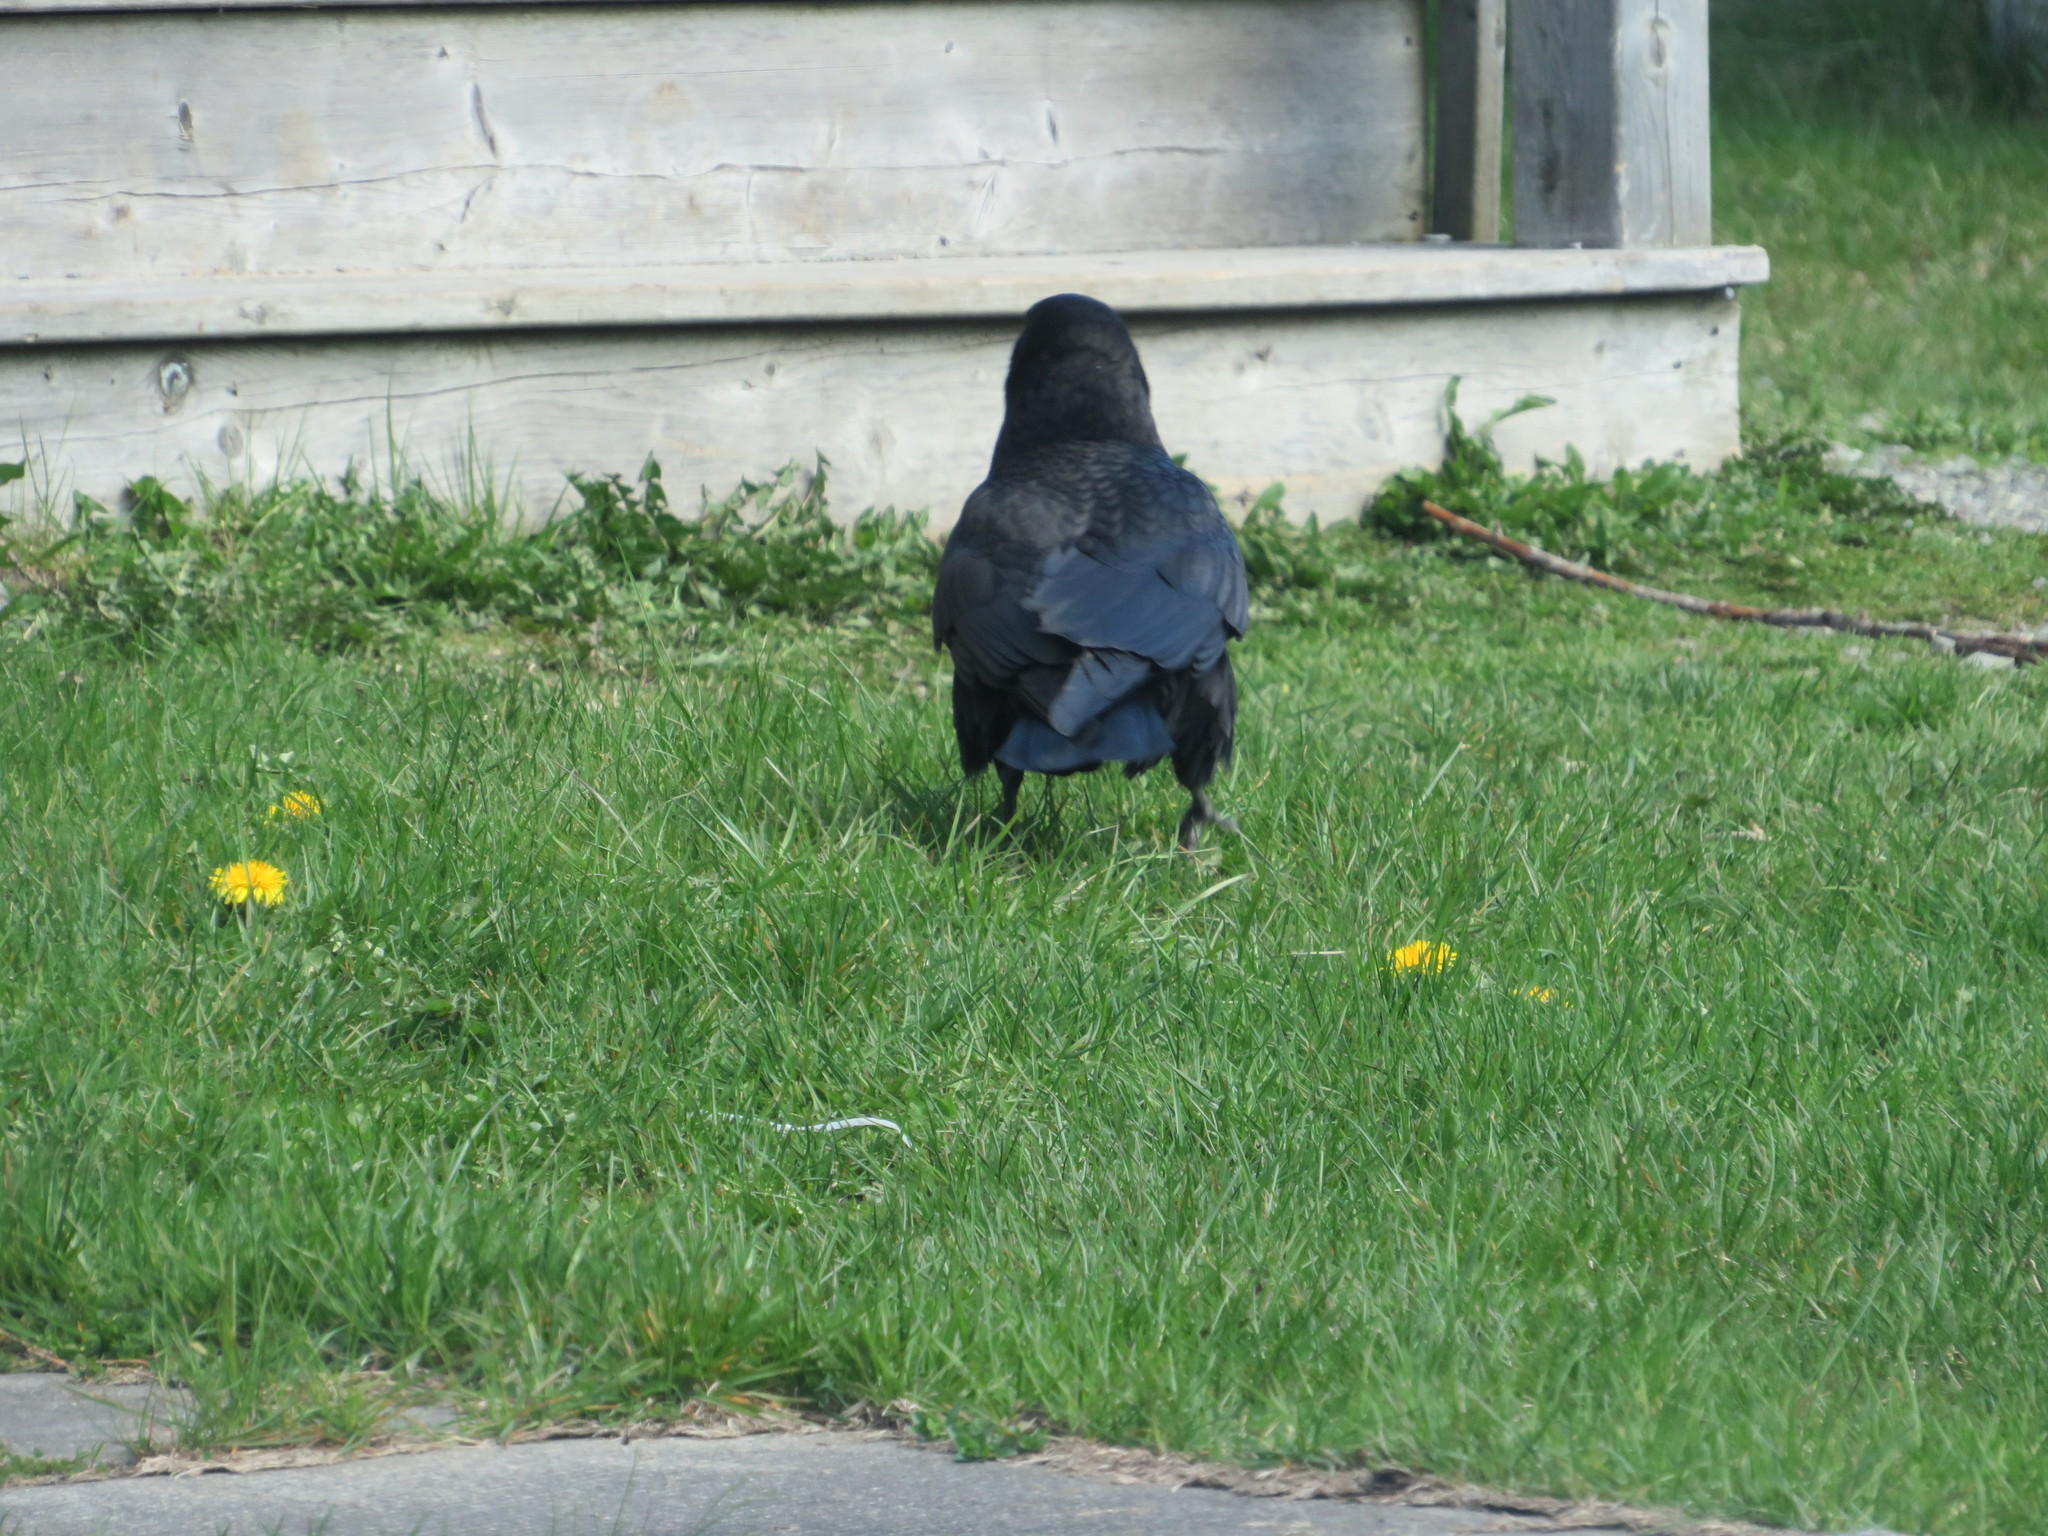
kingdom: Animalia
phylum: Chordata
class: Aves
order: Passeriformes
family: Corvidae
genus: Corvus
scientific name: Corvus brachyrhynchos
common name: American crow
